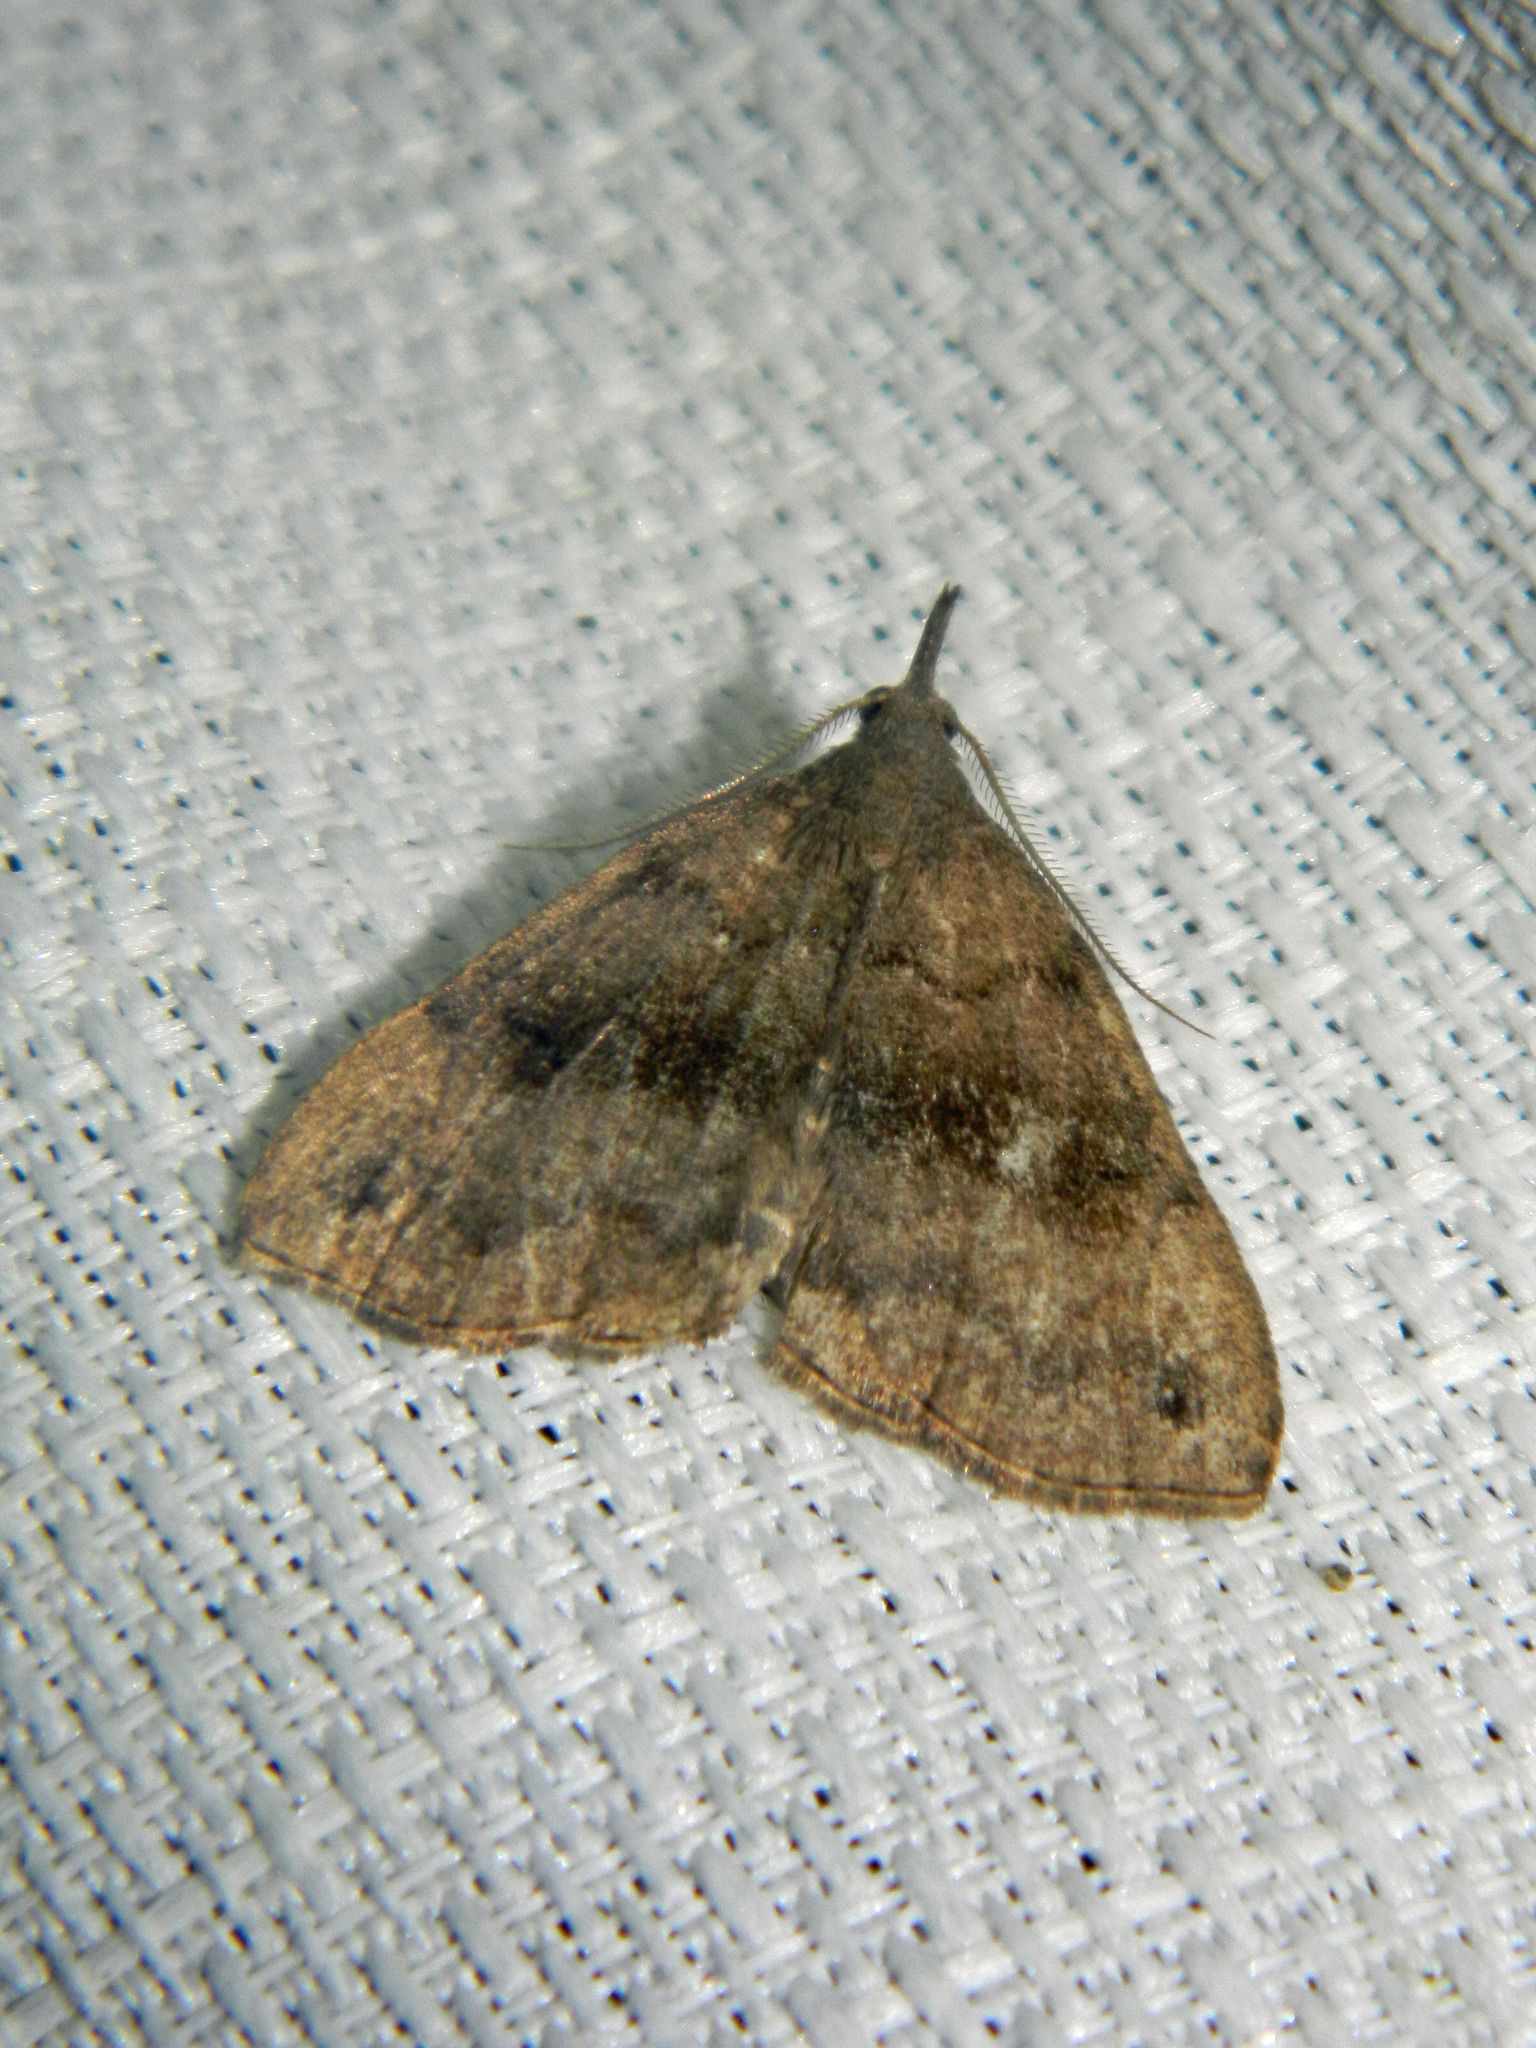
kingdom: Animalia
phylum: Arthropoda
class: Insecta
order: Lepidoptera
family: Erebidae
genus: Phalaenostola
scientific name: Phalaenostola eumelusalis
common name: Dark phalaenostola moth
